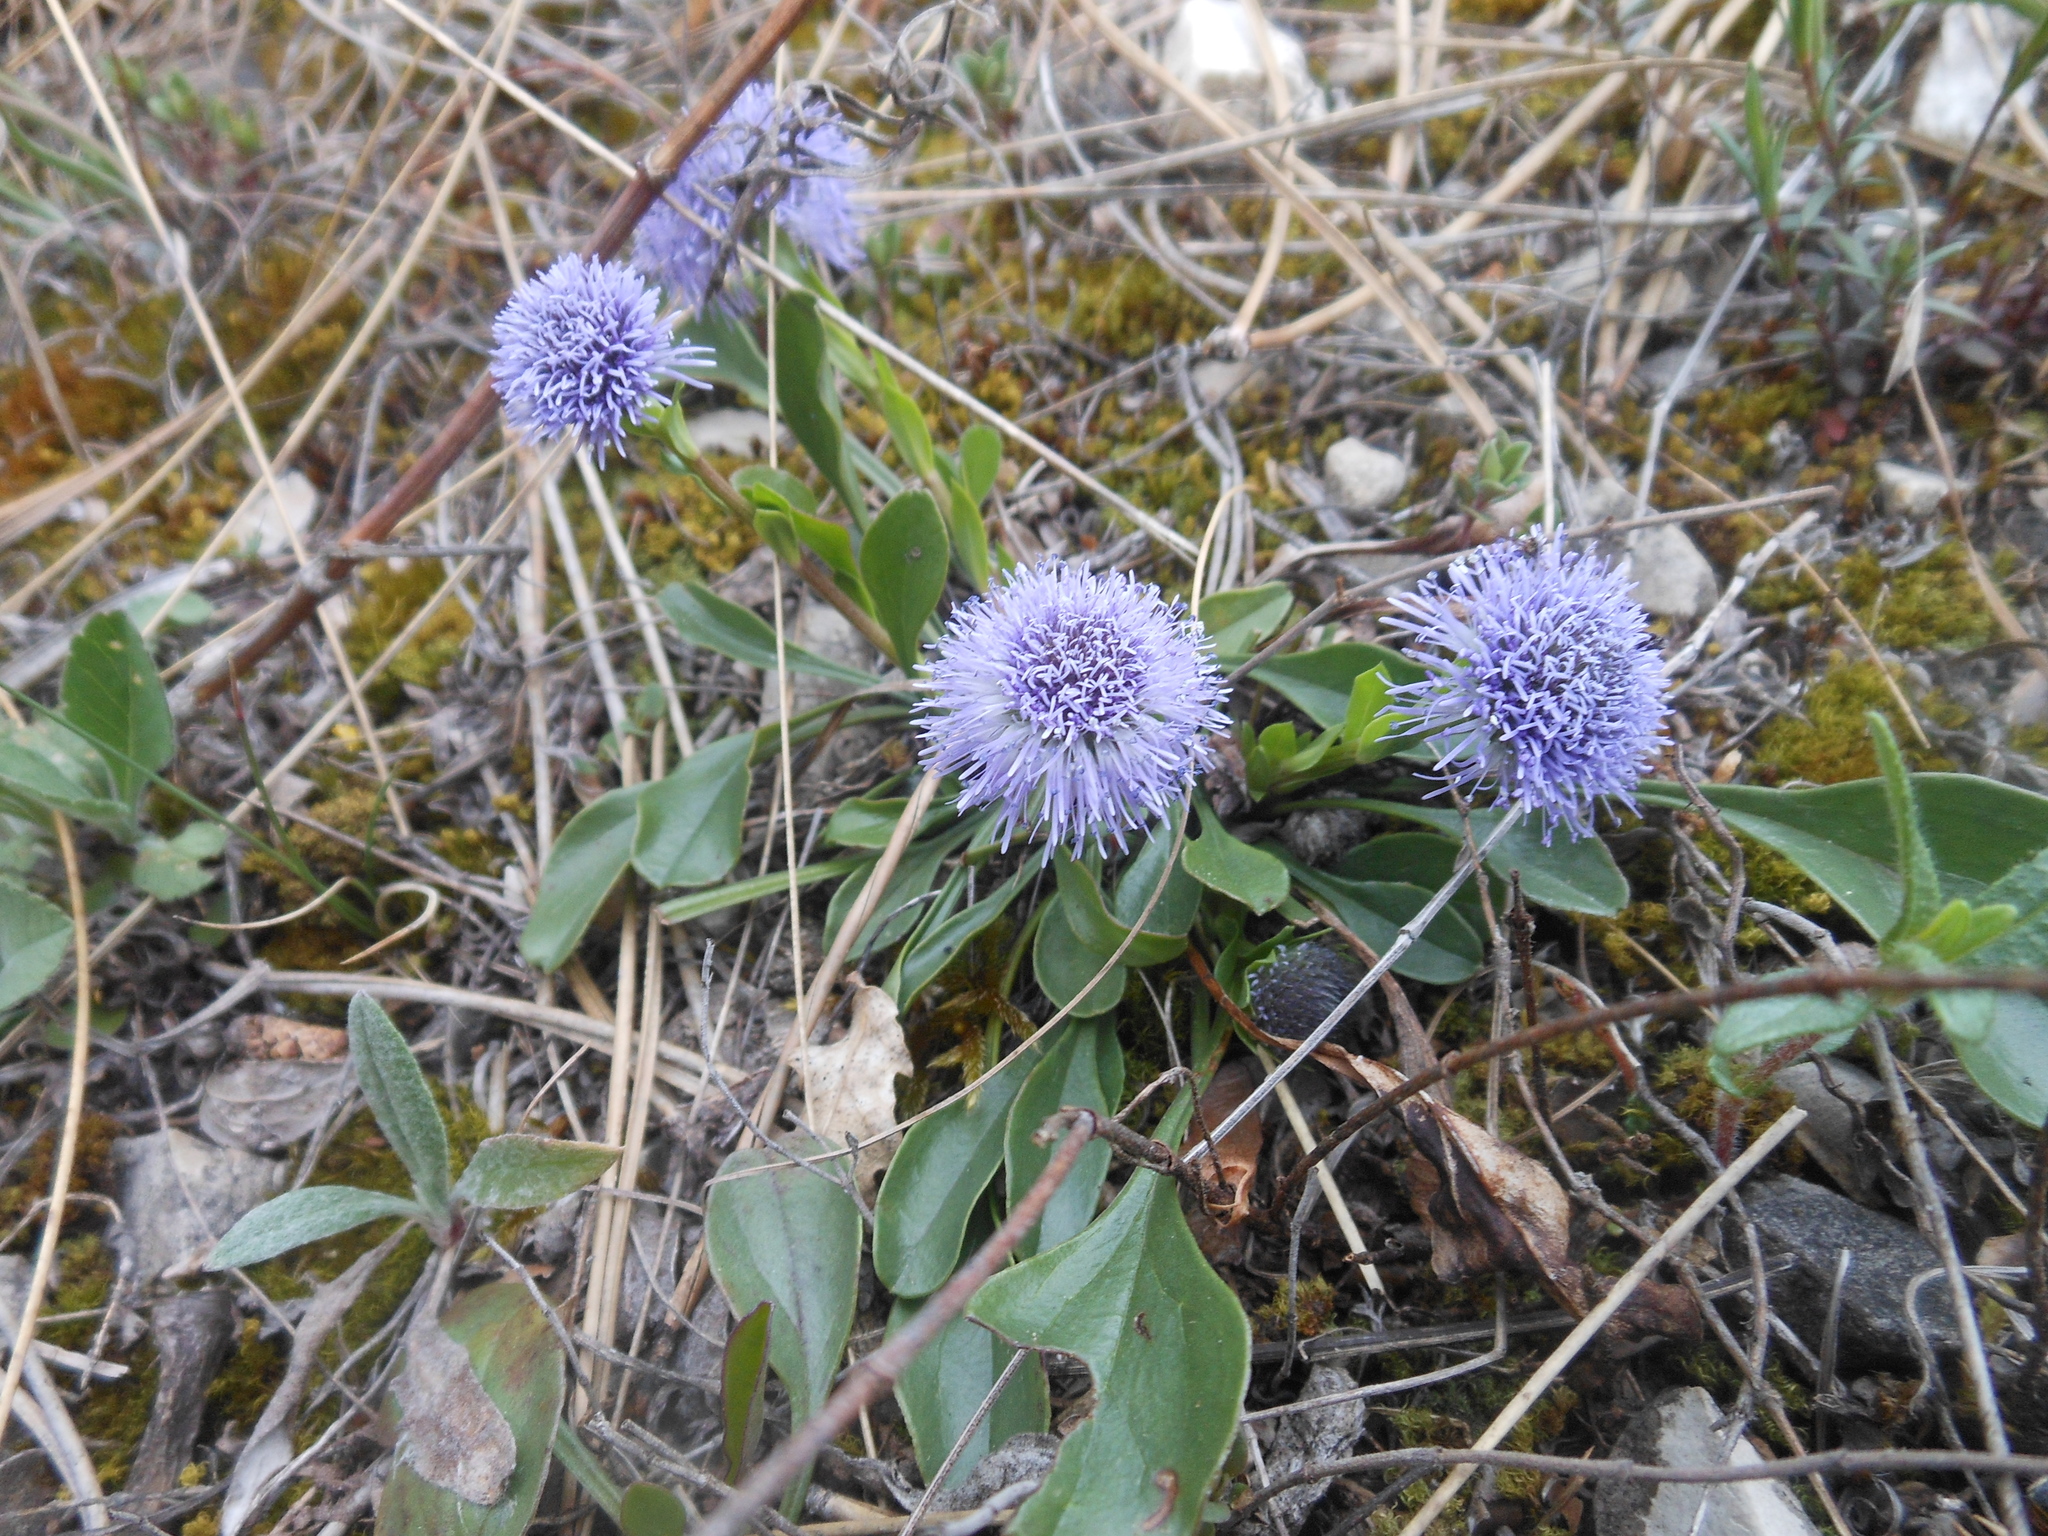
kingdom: Plantae
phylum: Tracheophyta
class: Magnoliopsida
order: Lamiales
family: Plantaginaceae
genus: Globularia
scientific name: Globularia bisnagarica
